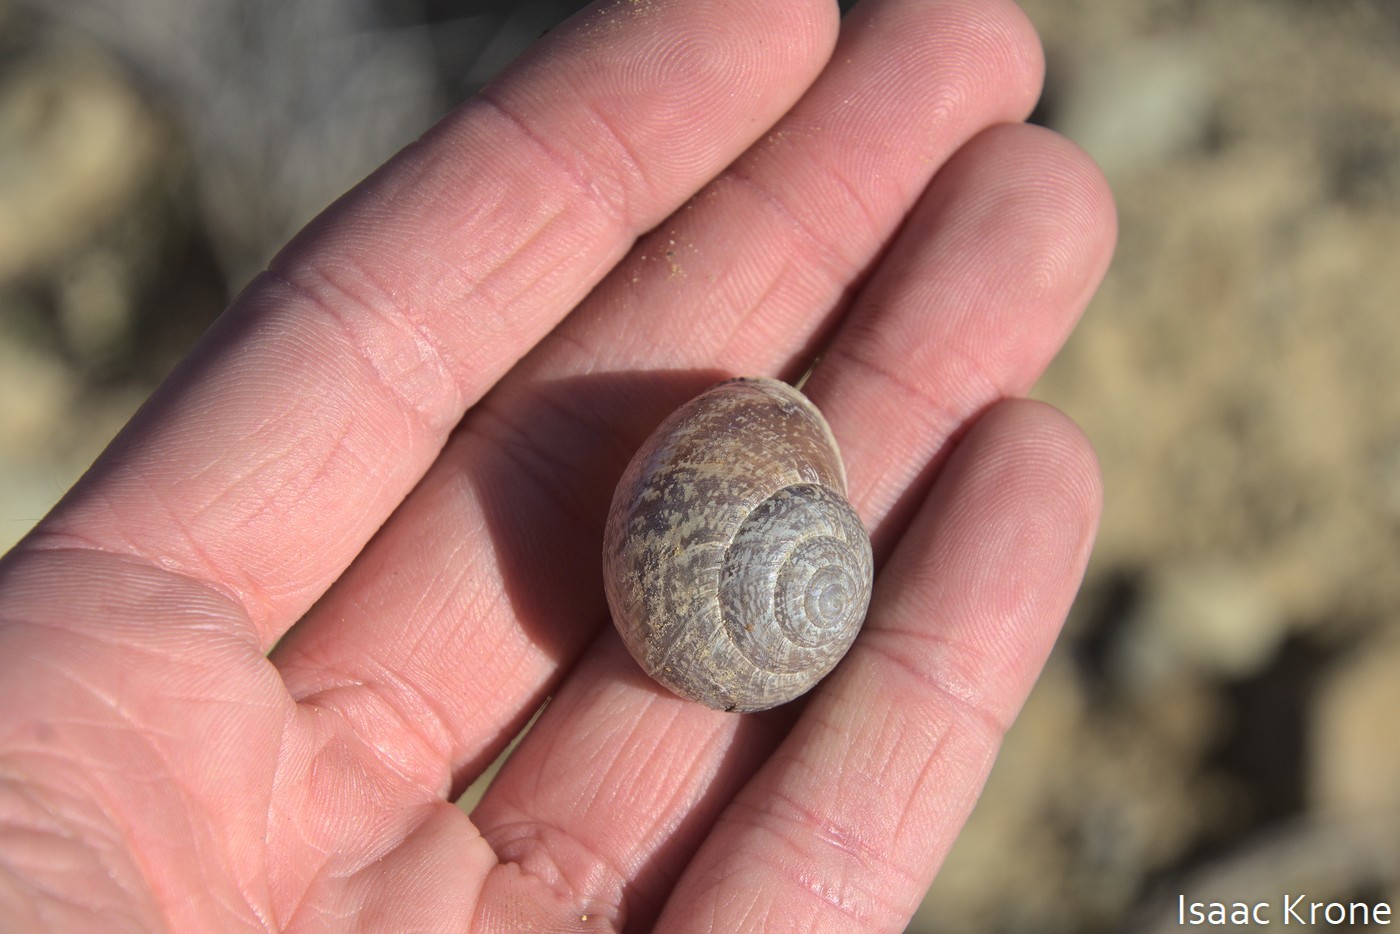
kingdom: Animalia
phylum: Mollusca
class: Gastropoda
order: Stylommatophora
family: Xanthonychidae
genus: Xerarionta
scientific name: Xerarionta kellettii
